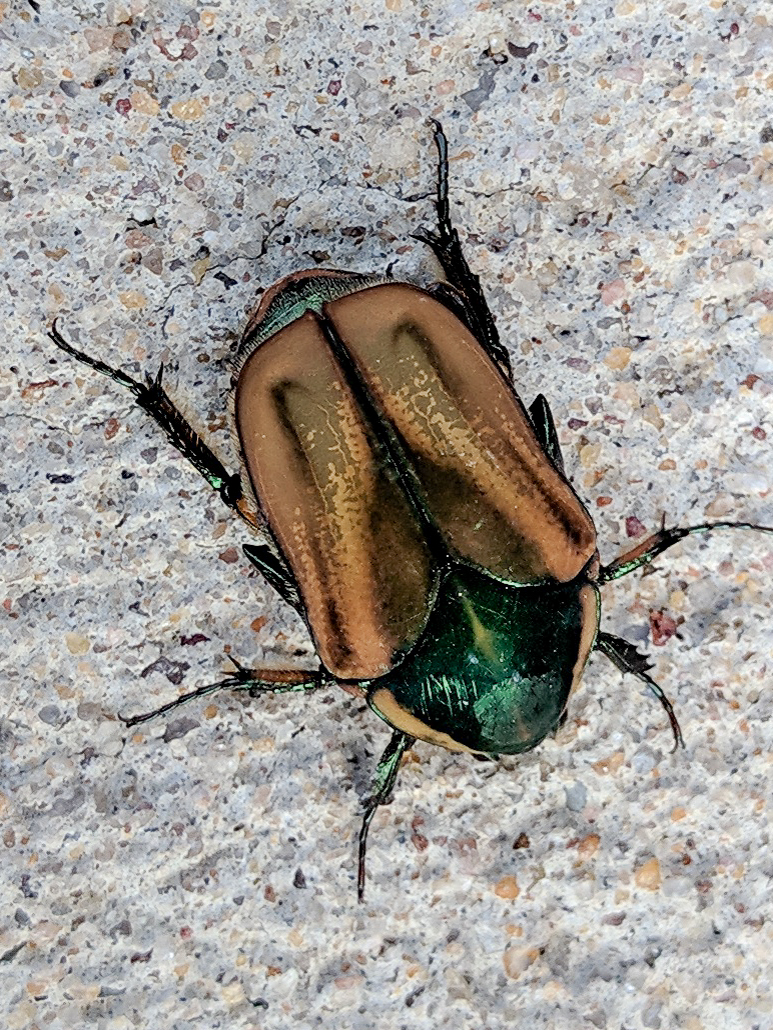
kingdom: Animalia
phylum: Arthropoda
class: Insecta
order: Coleoptera
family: Scarabaeidae
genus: Cotinis
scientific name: Cotinis nitida
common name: Common green june beetle
